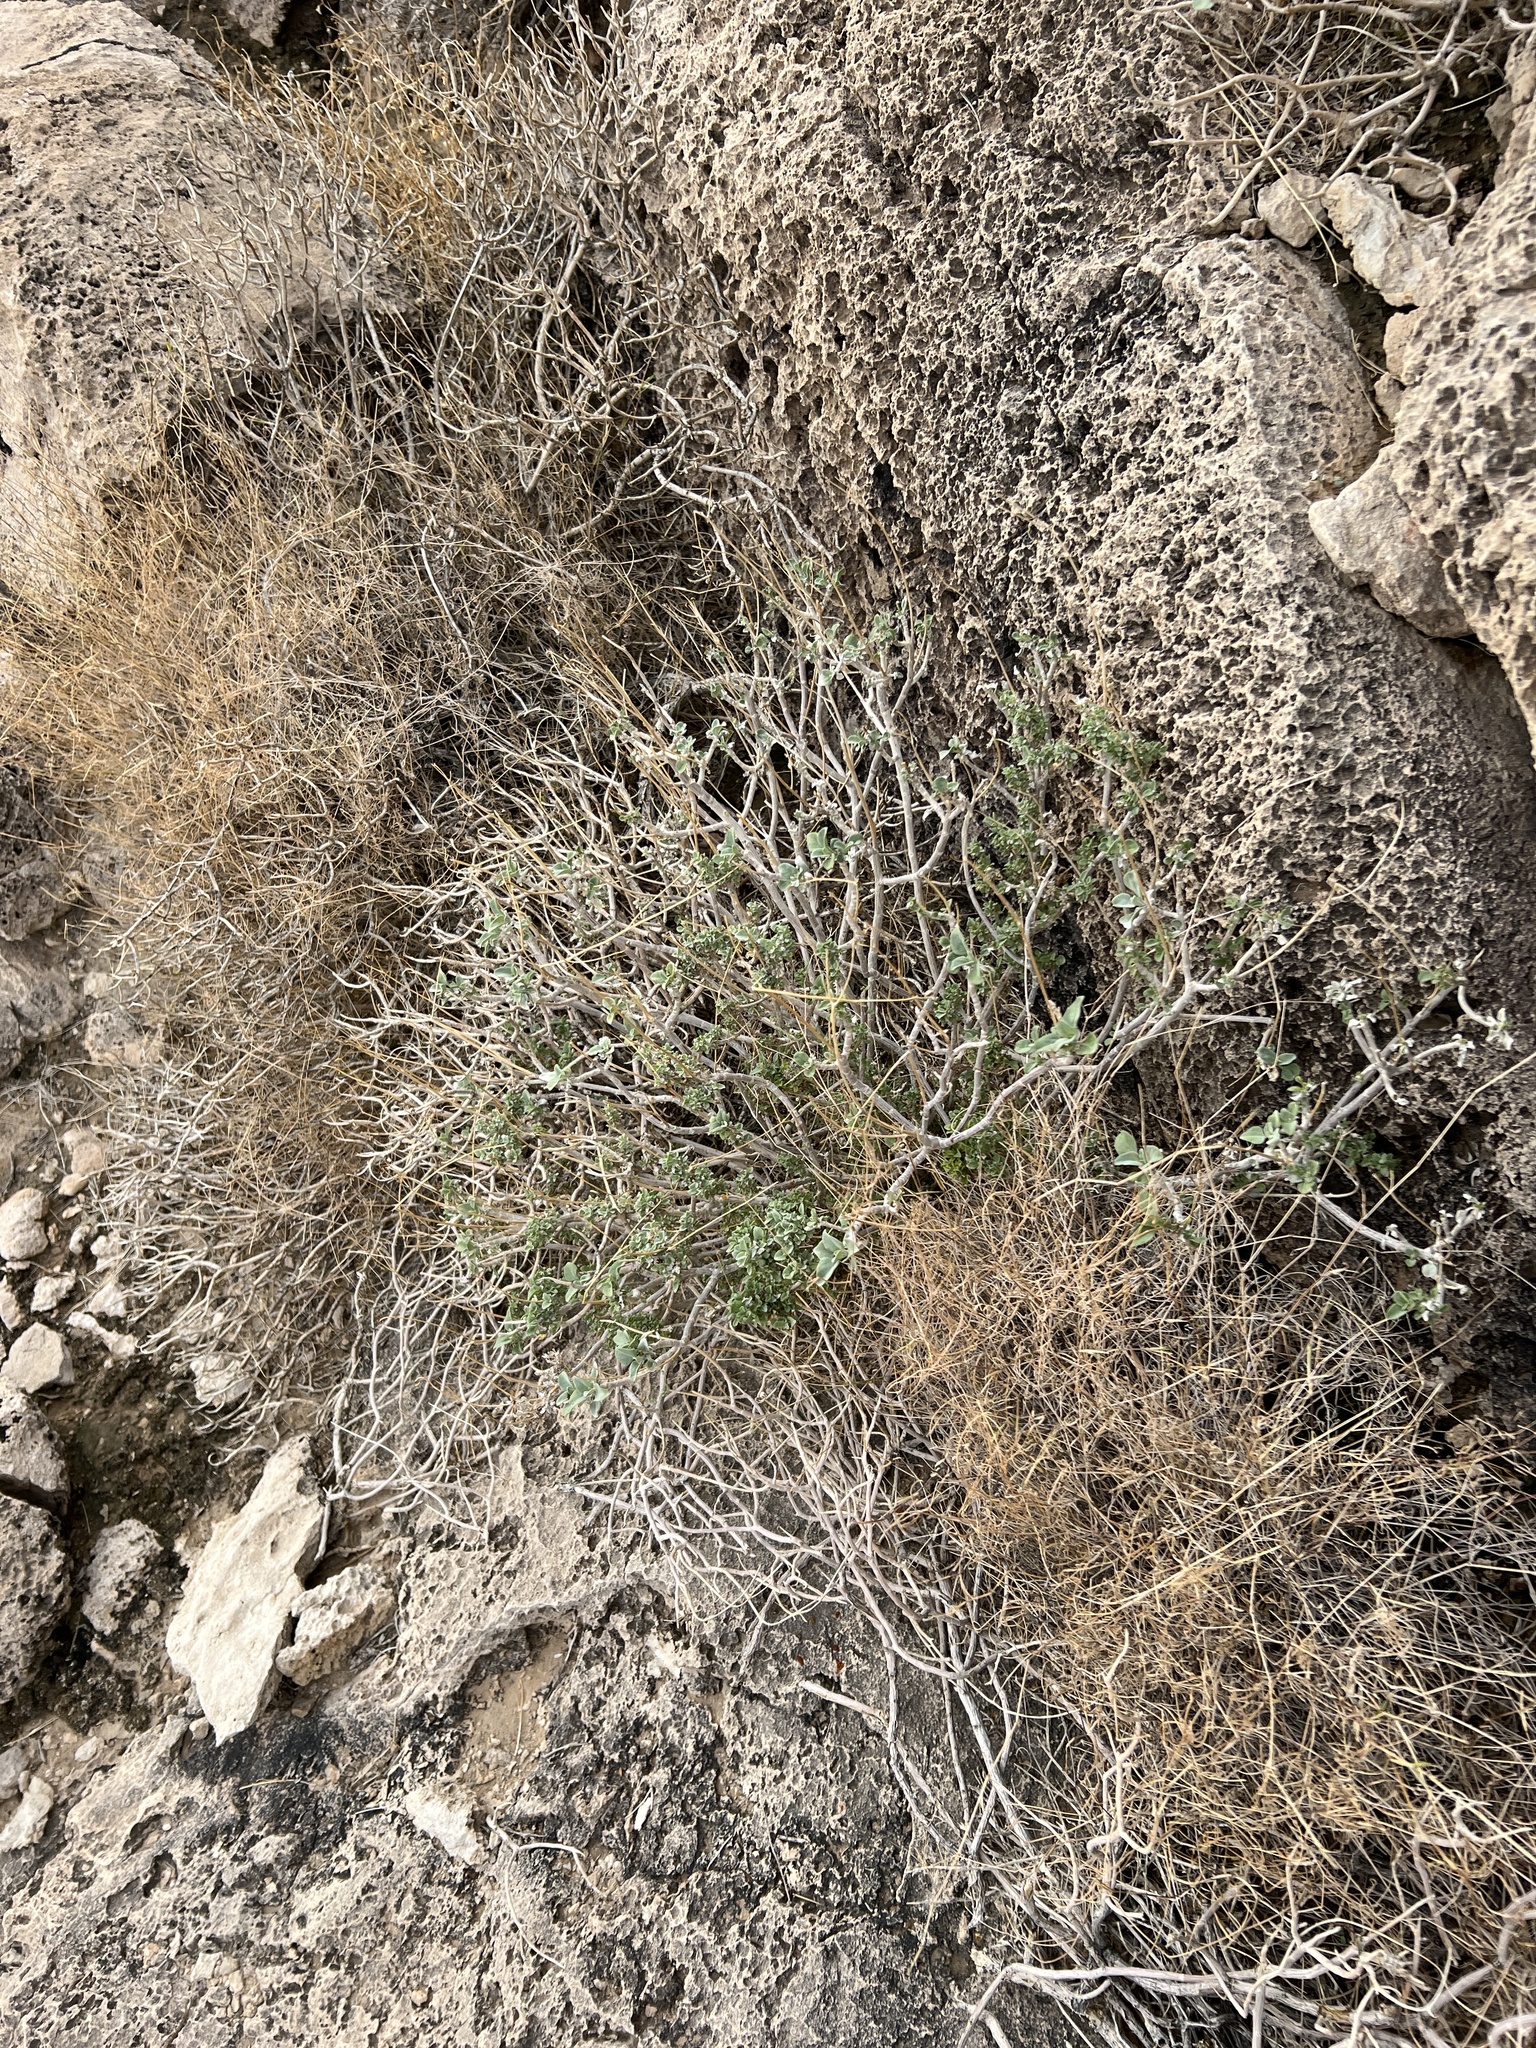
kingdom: Plantae
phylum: Tracheophyta
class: Magnoliopsida
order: Asterales
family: Asteraceae
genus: Encelia
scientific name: Encelia farinosa
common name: Brittlebush
